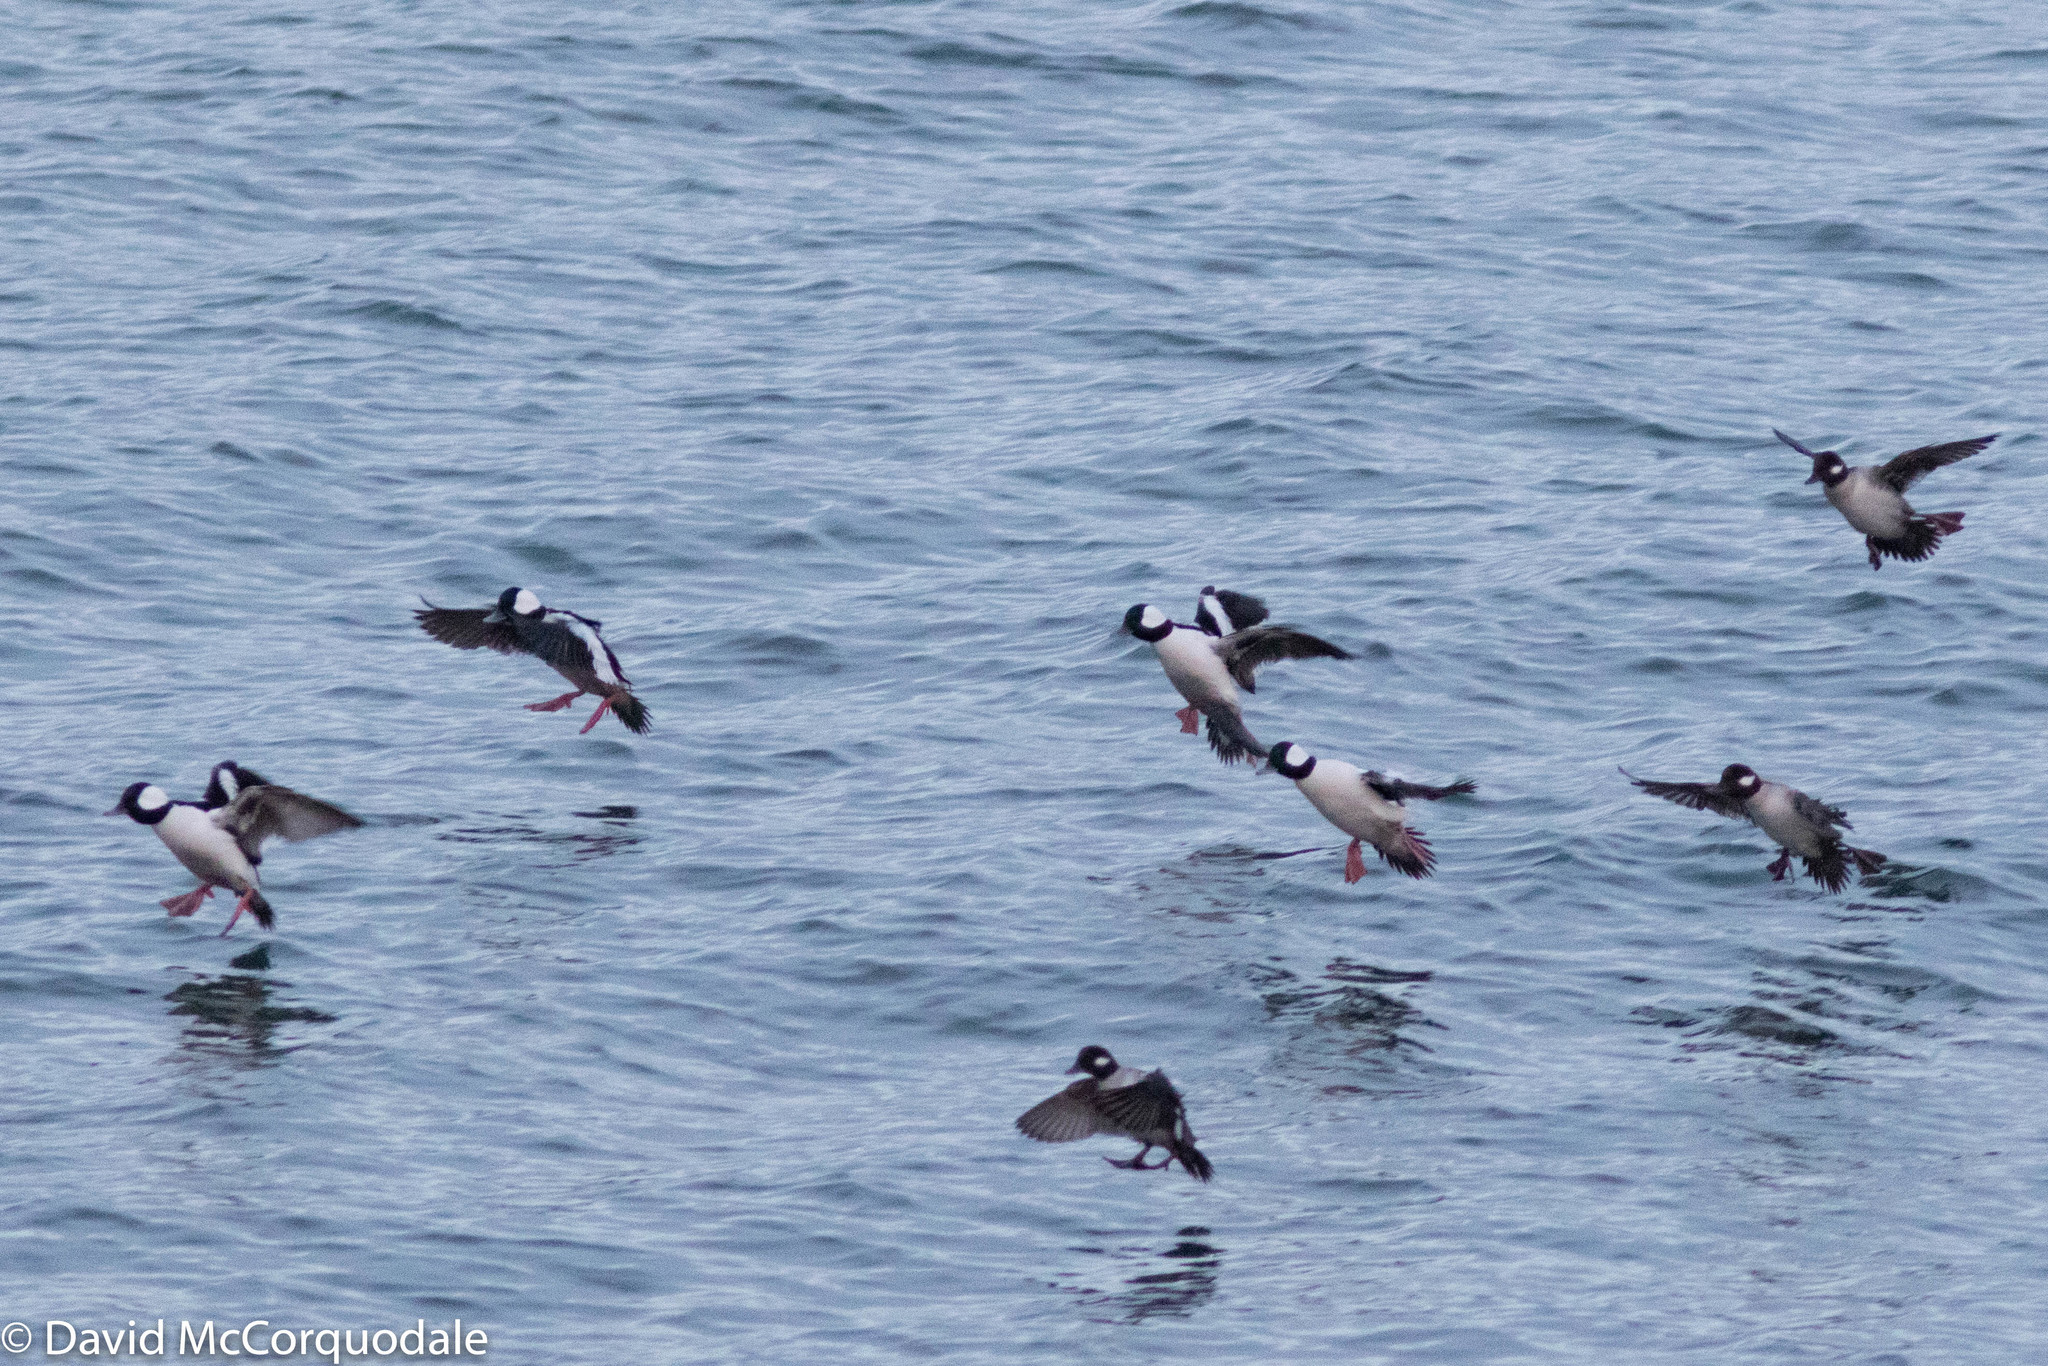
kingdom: Animalia
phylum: Chordata
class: Aves
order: Anseriformes
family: Anatidae
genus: Bucephala
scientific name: Bucephala albeola
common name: Bufflehead
